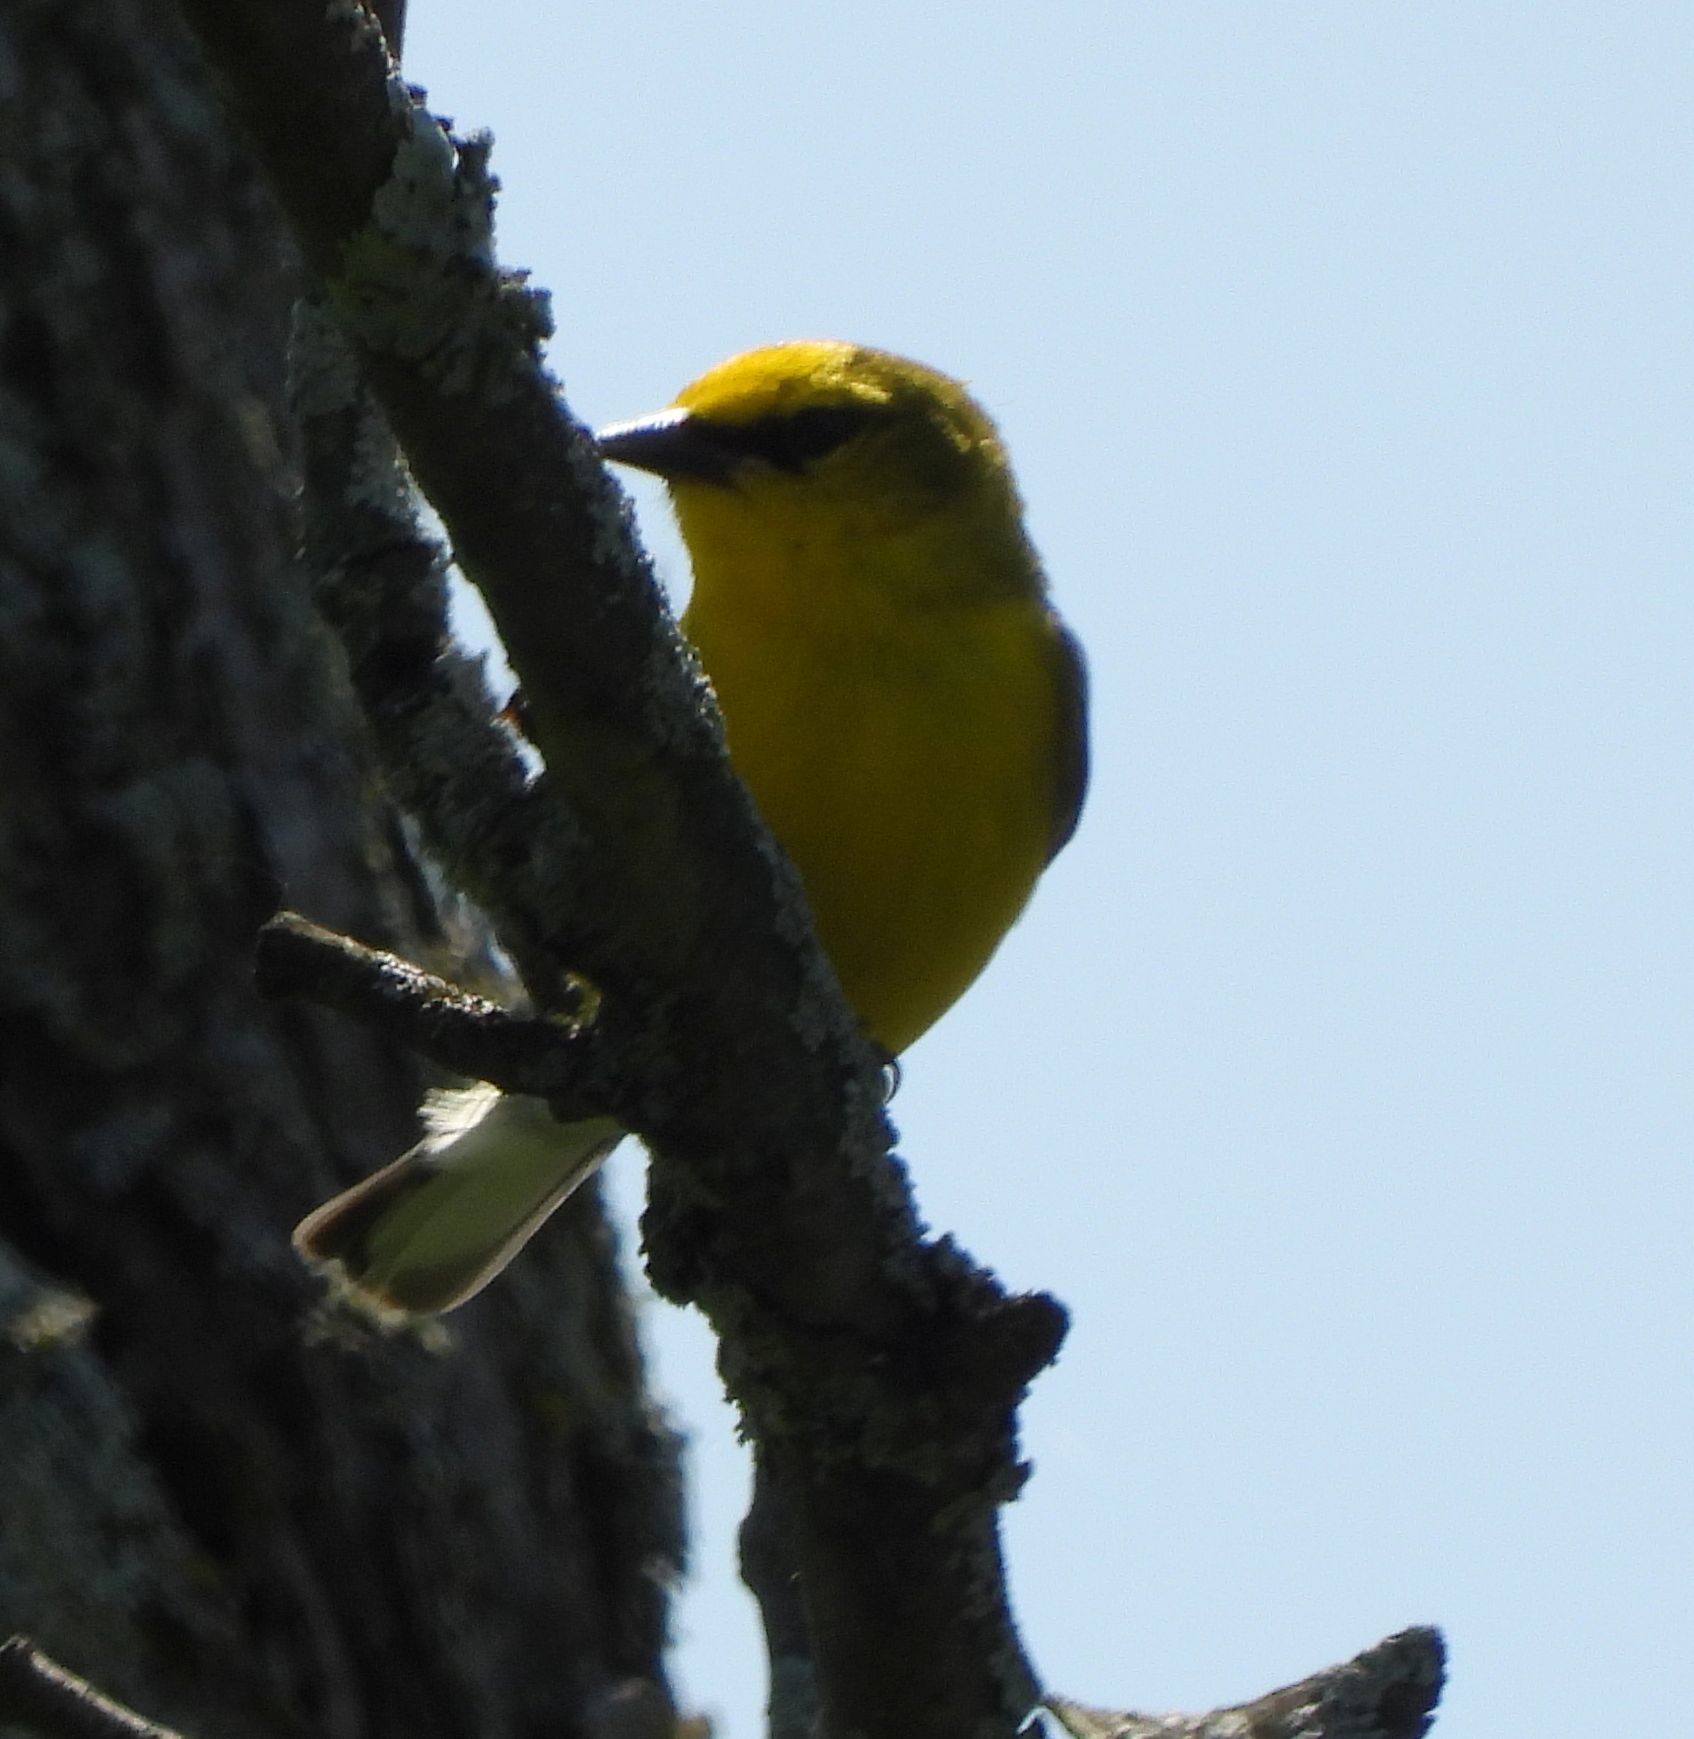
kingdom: Animalia
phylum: Chordata
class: Aves
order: Passeriformes
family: Parulidae
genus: Vermivora
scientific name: Vermivora cyanoptera
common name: Blue-winged warbler
